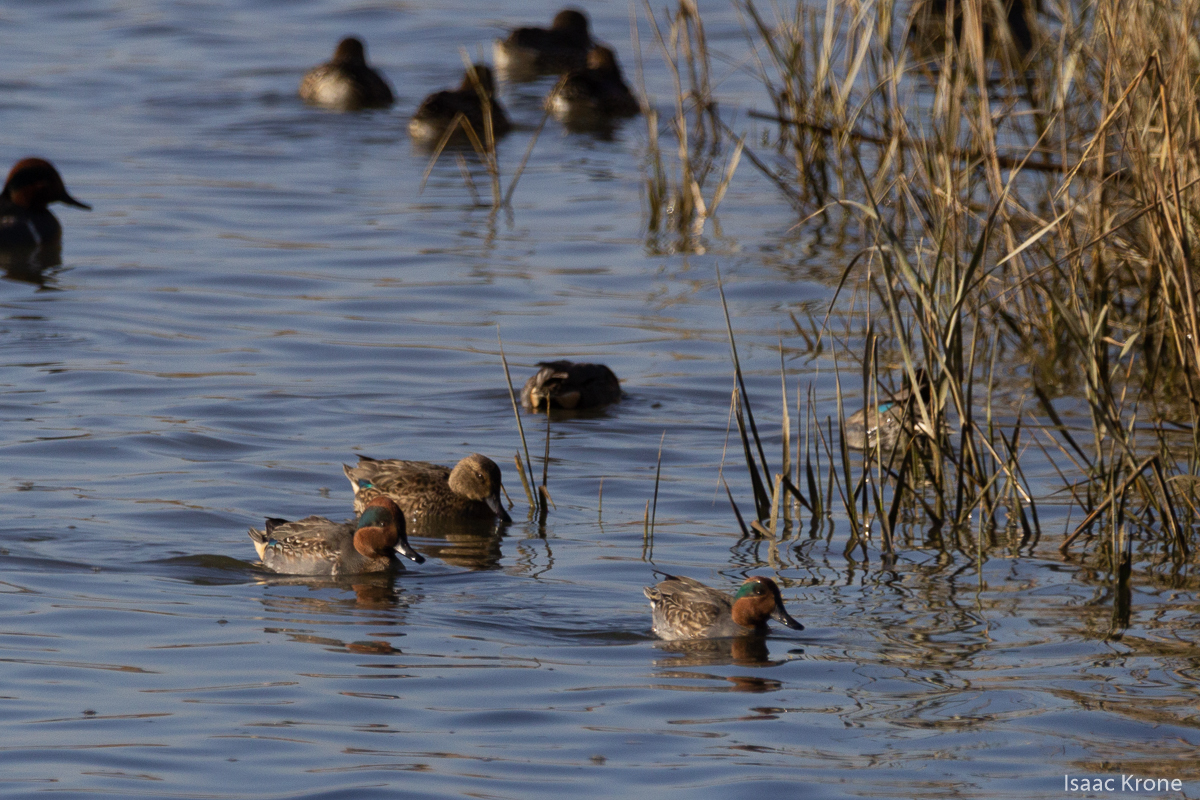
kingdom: Animalia
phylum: Chordata
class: Aves
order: Anseriformes
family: Anatidae
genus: Anas
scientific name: Anas crecca
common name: Eurasian teal
